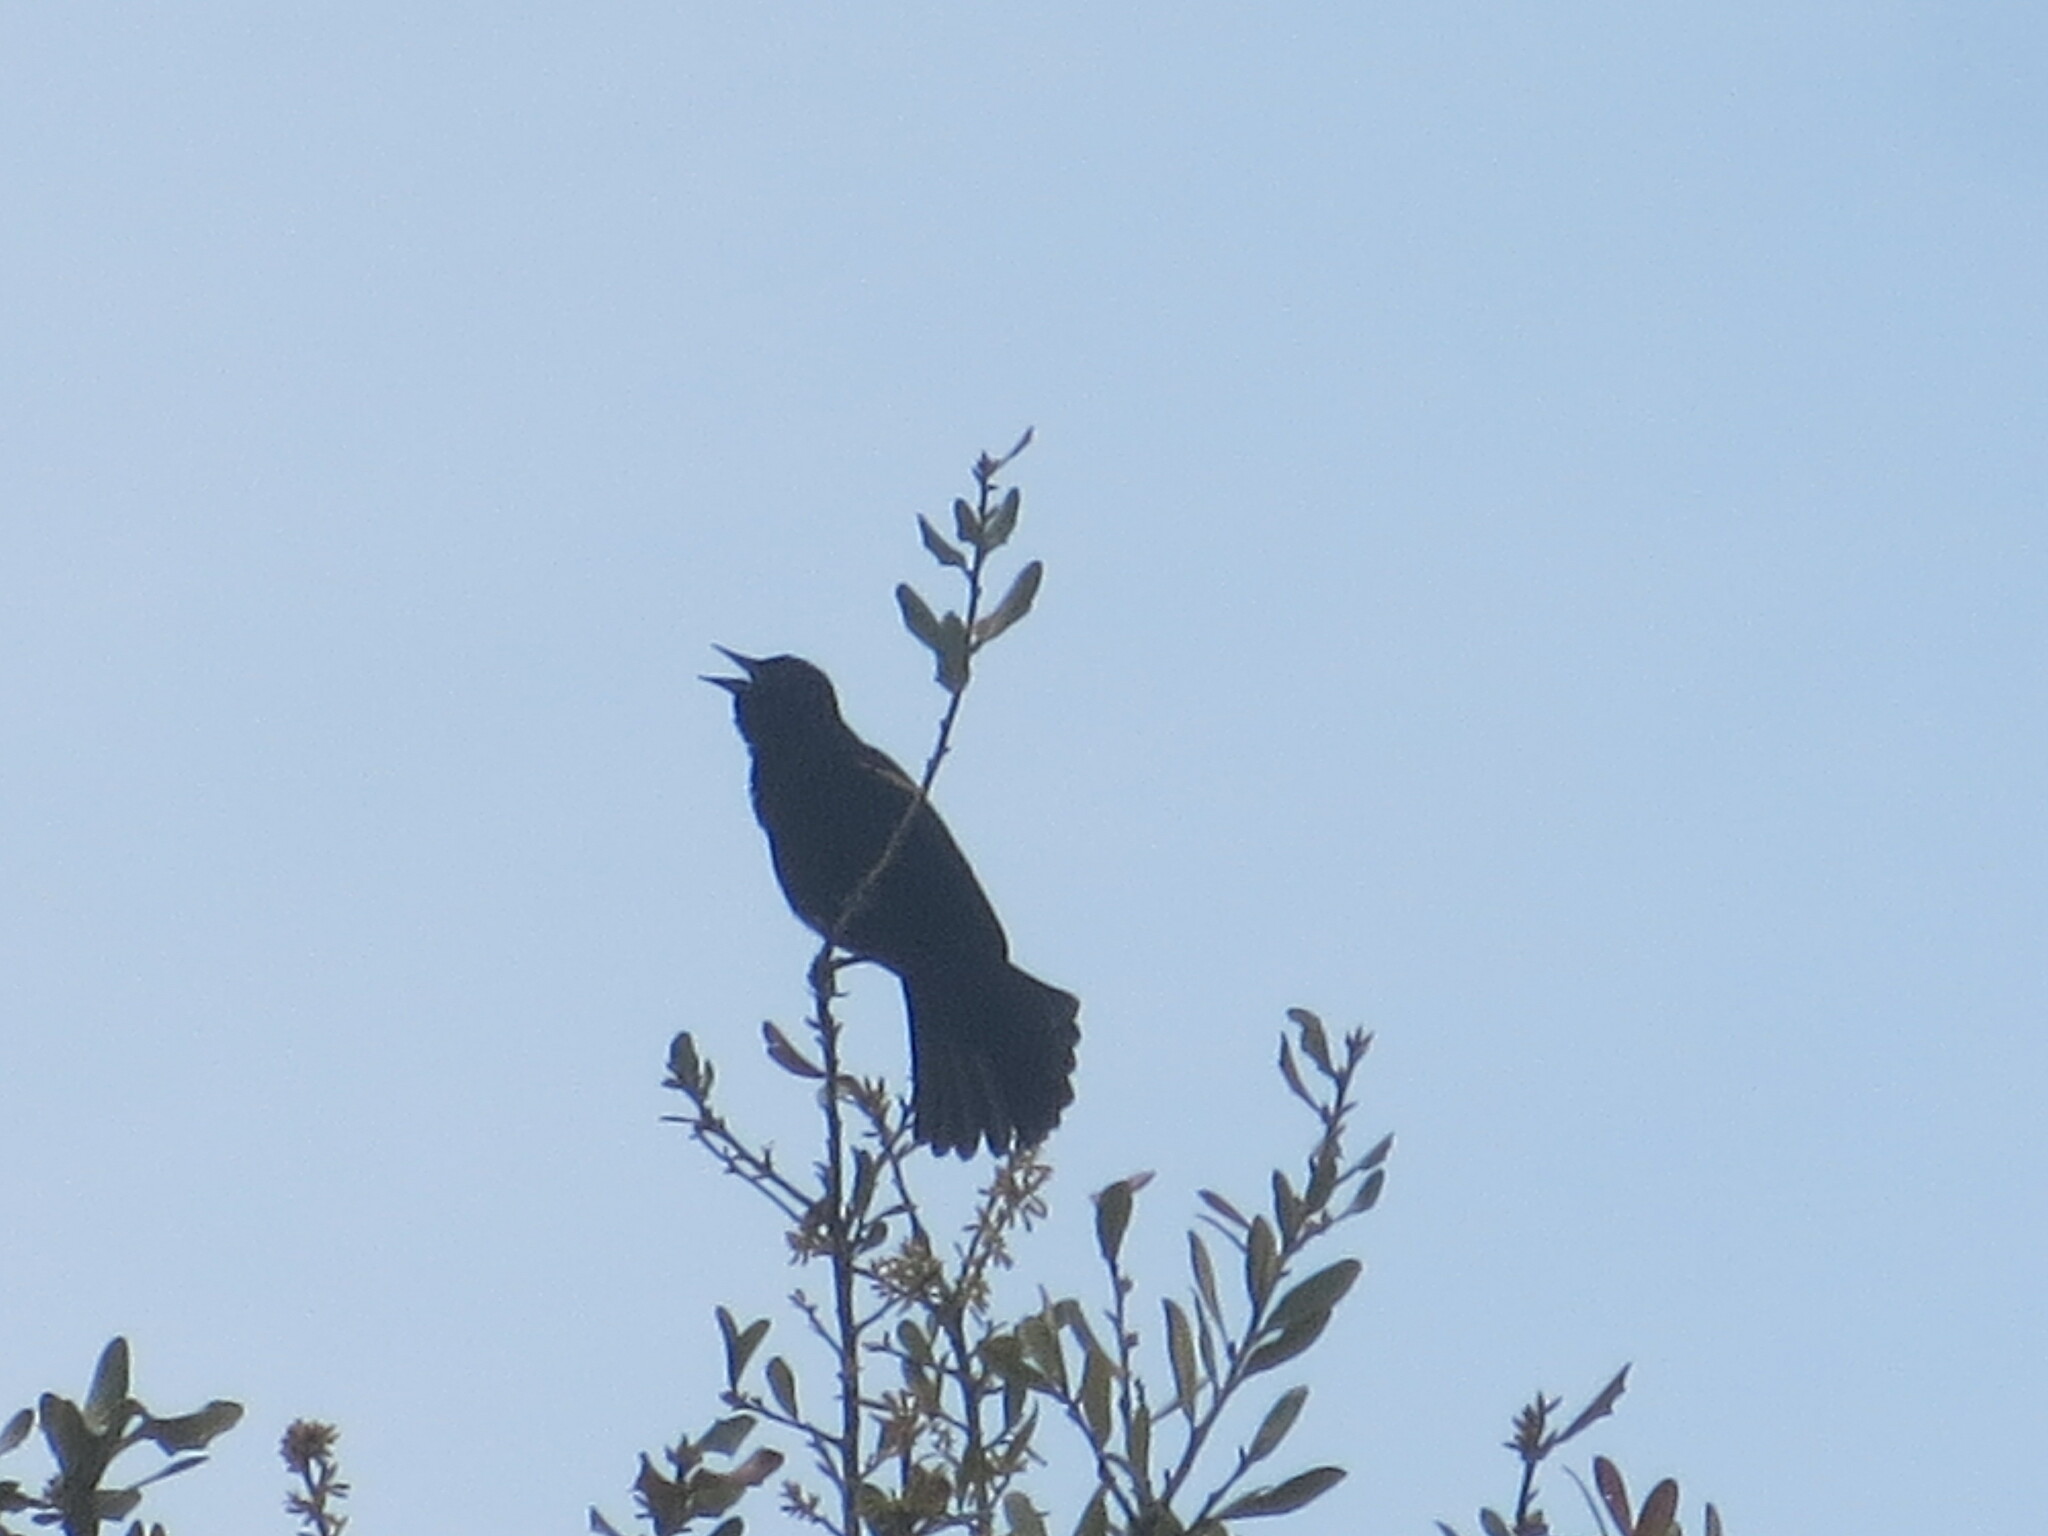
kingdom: Animalia
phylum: Chordata
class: Aves
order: Passeriformes
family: Icteridae
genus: Agelaius
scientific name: Agelaius phoeniceus
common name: Red-winged blackbird
